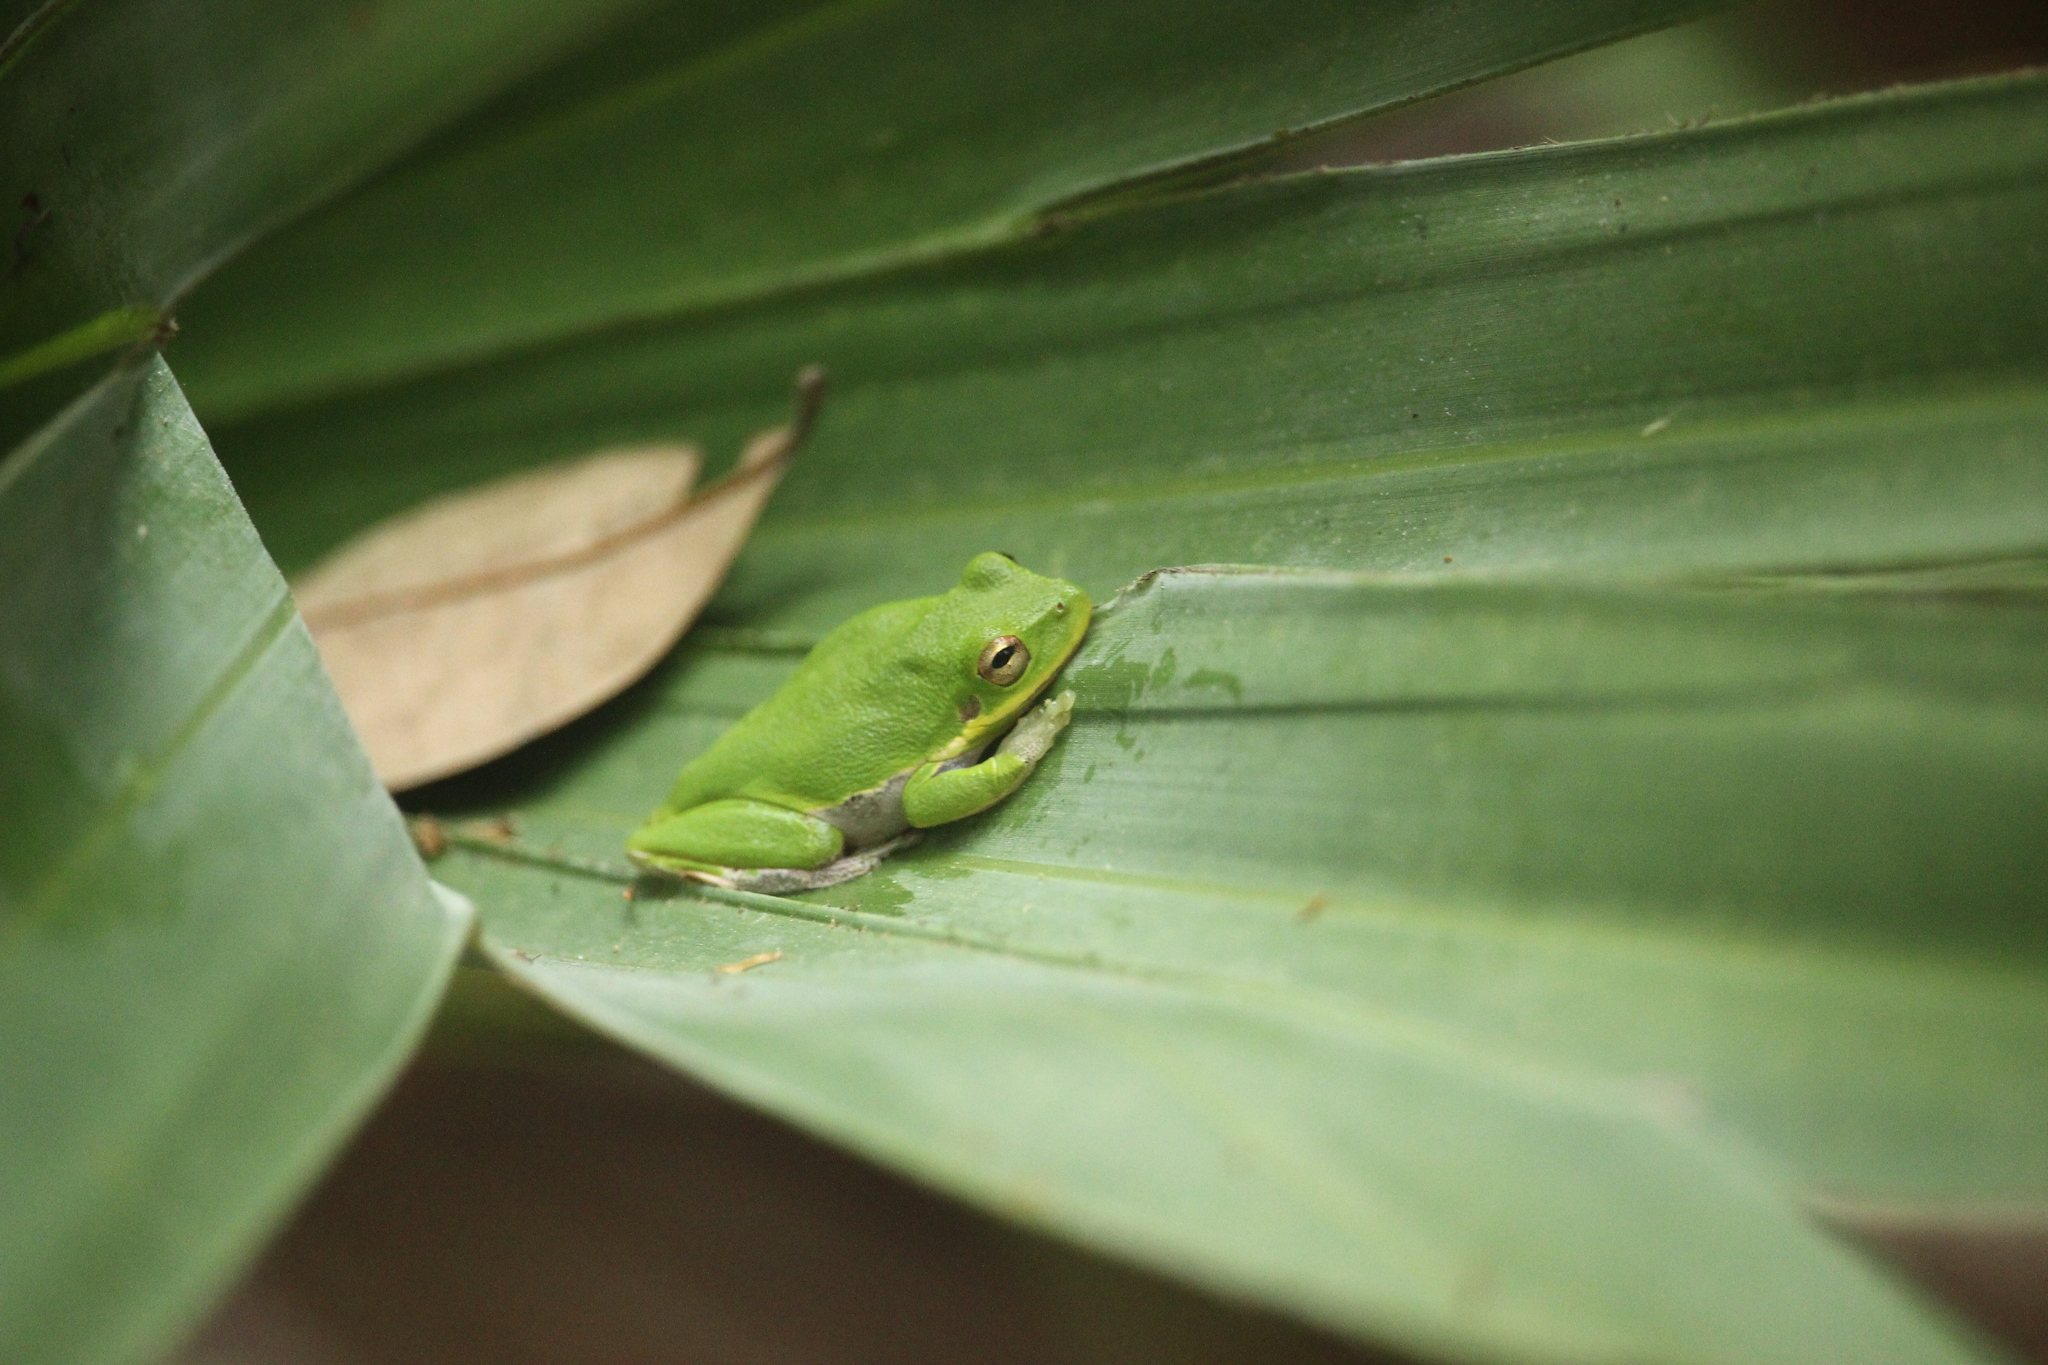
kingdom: Animalia
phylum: Chordata
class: Amphibia
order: Anura
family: Hylidae
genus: Dryophytes
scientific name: Dryophytes squirellus
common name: Squirrel treefrog
